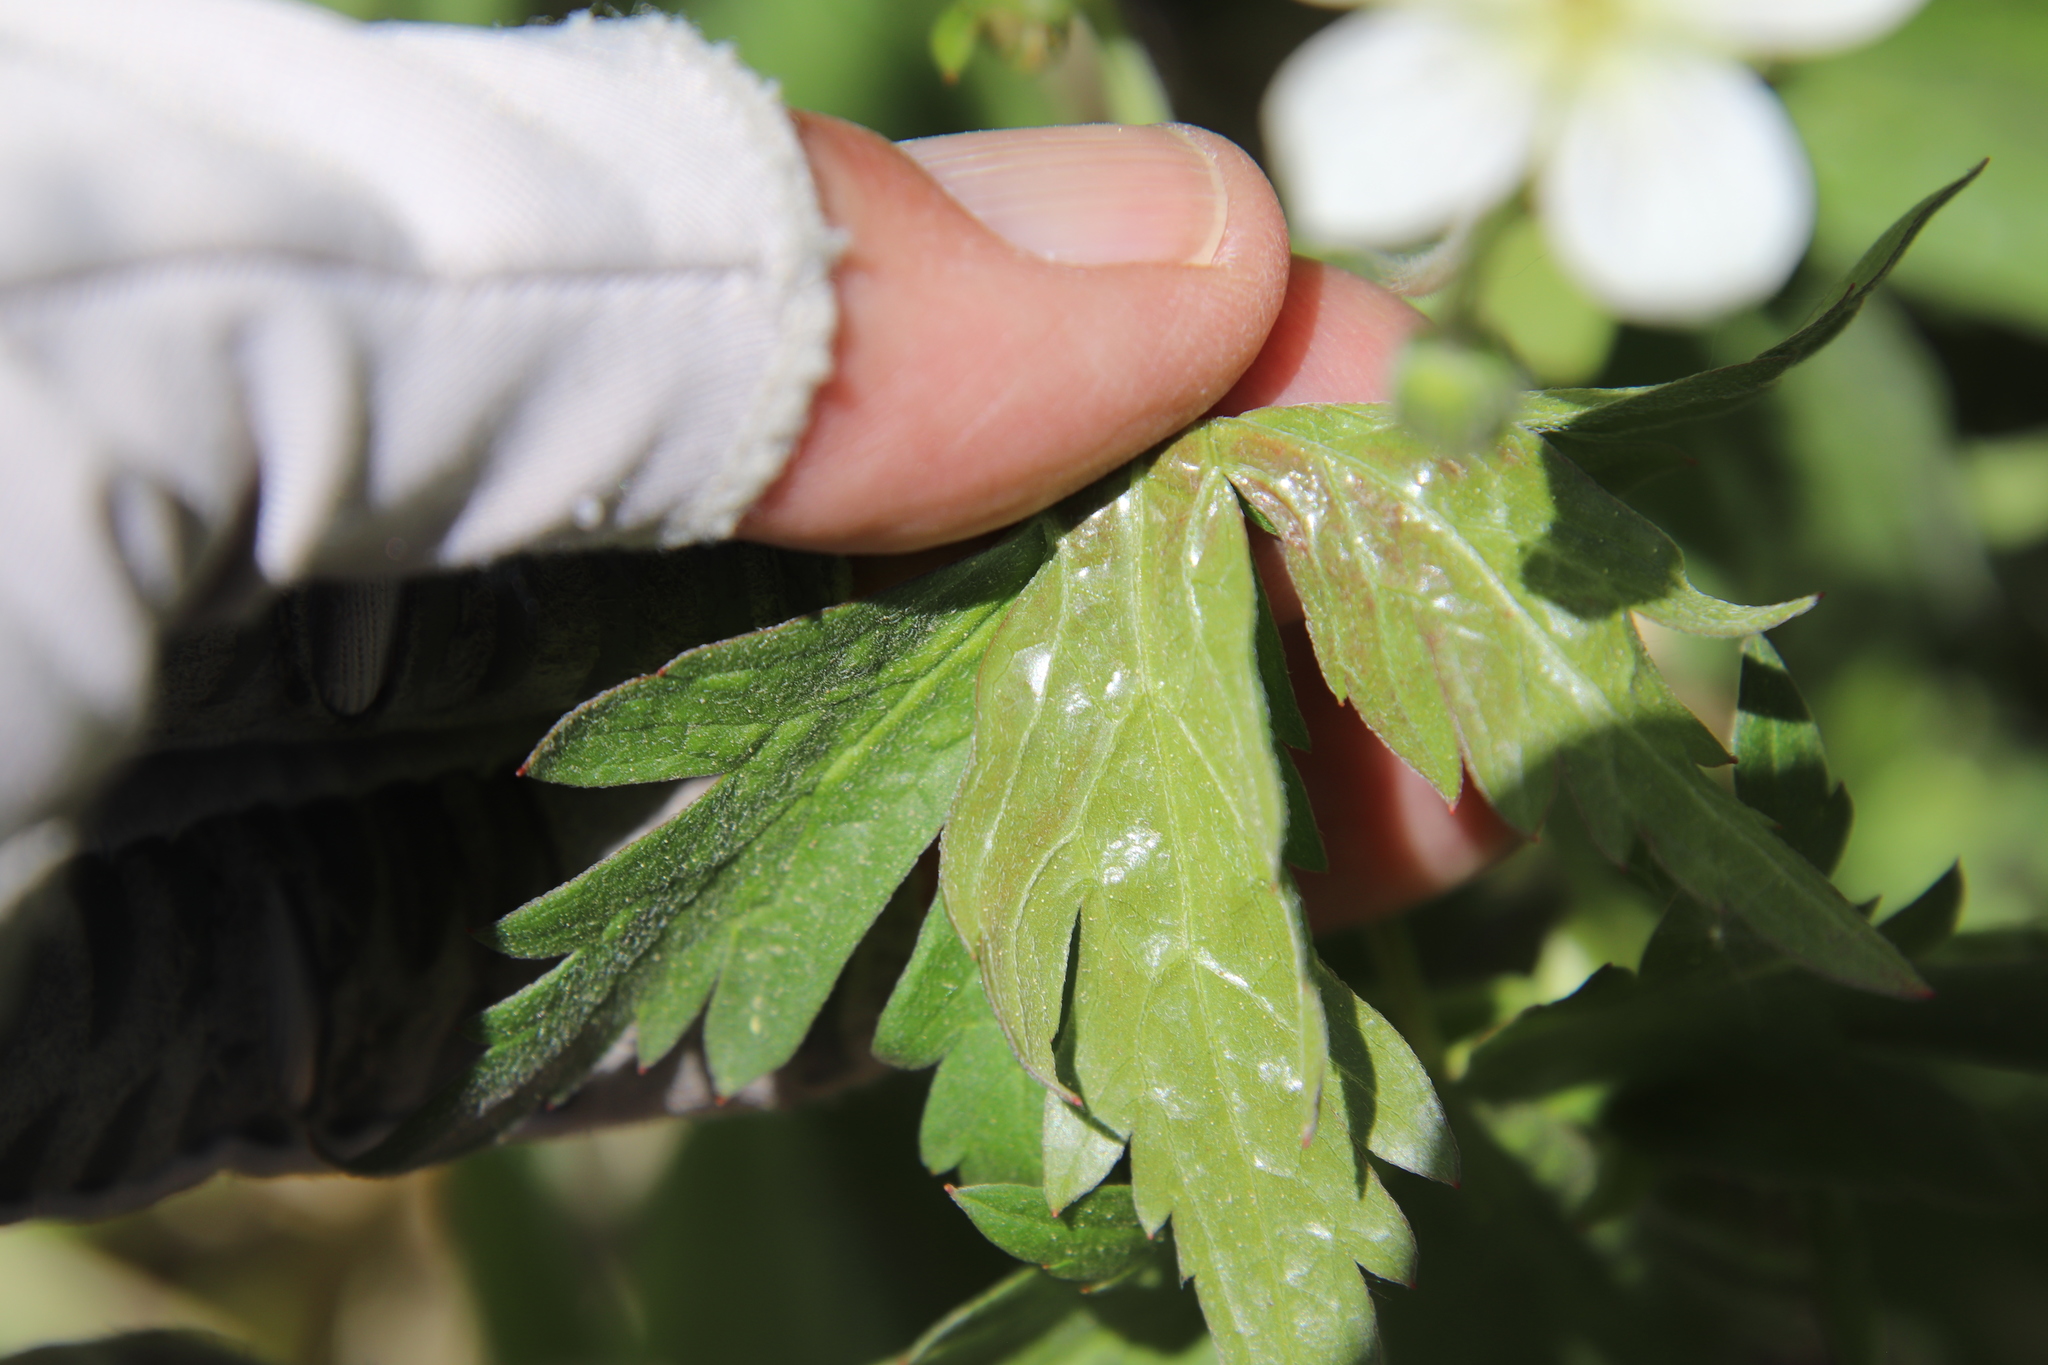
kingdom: Plantae
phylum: Tracheophyta
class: Magnoliopsida
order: Geraniales
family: Geraniaceae
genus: Geranium
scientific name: Geranium richardsonii
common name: Richardson's crane's-bill
